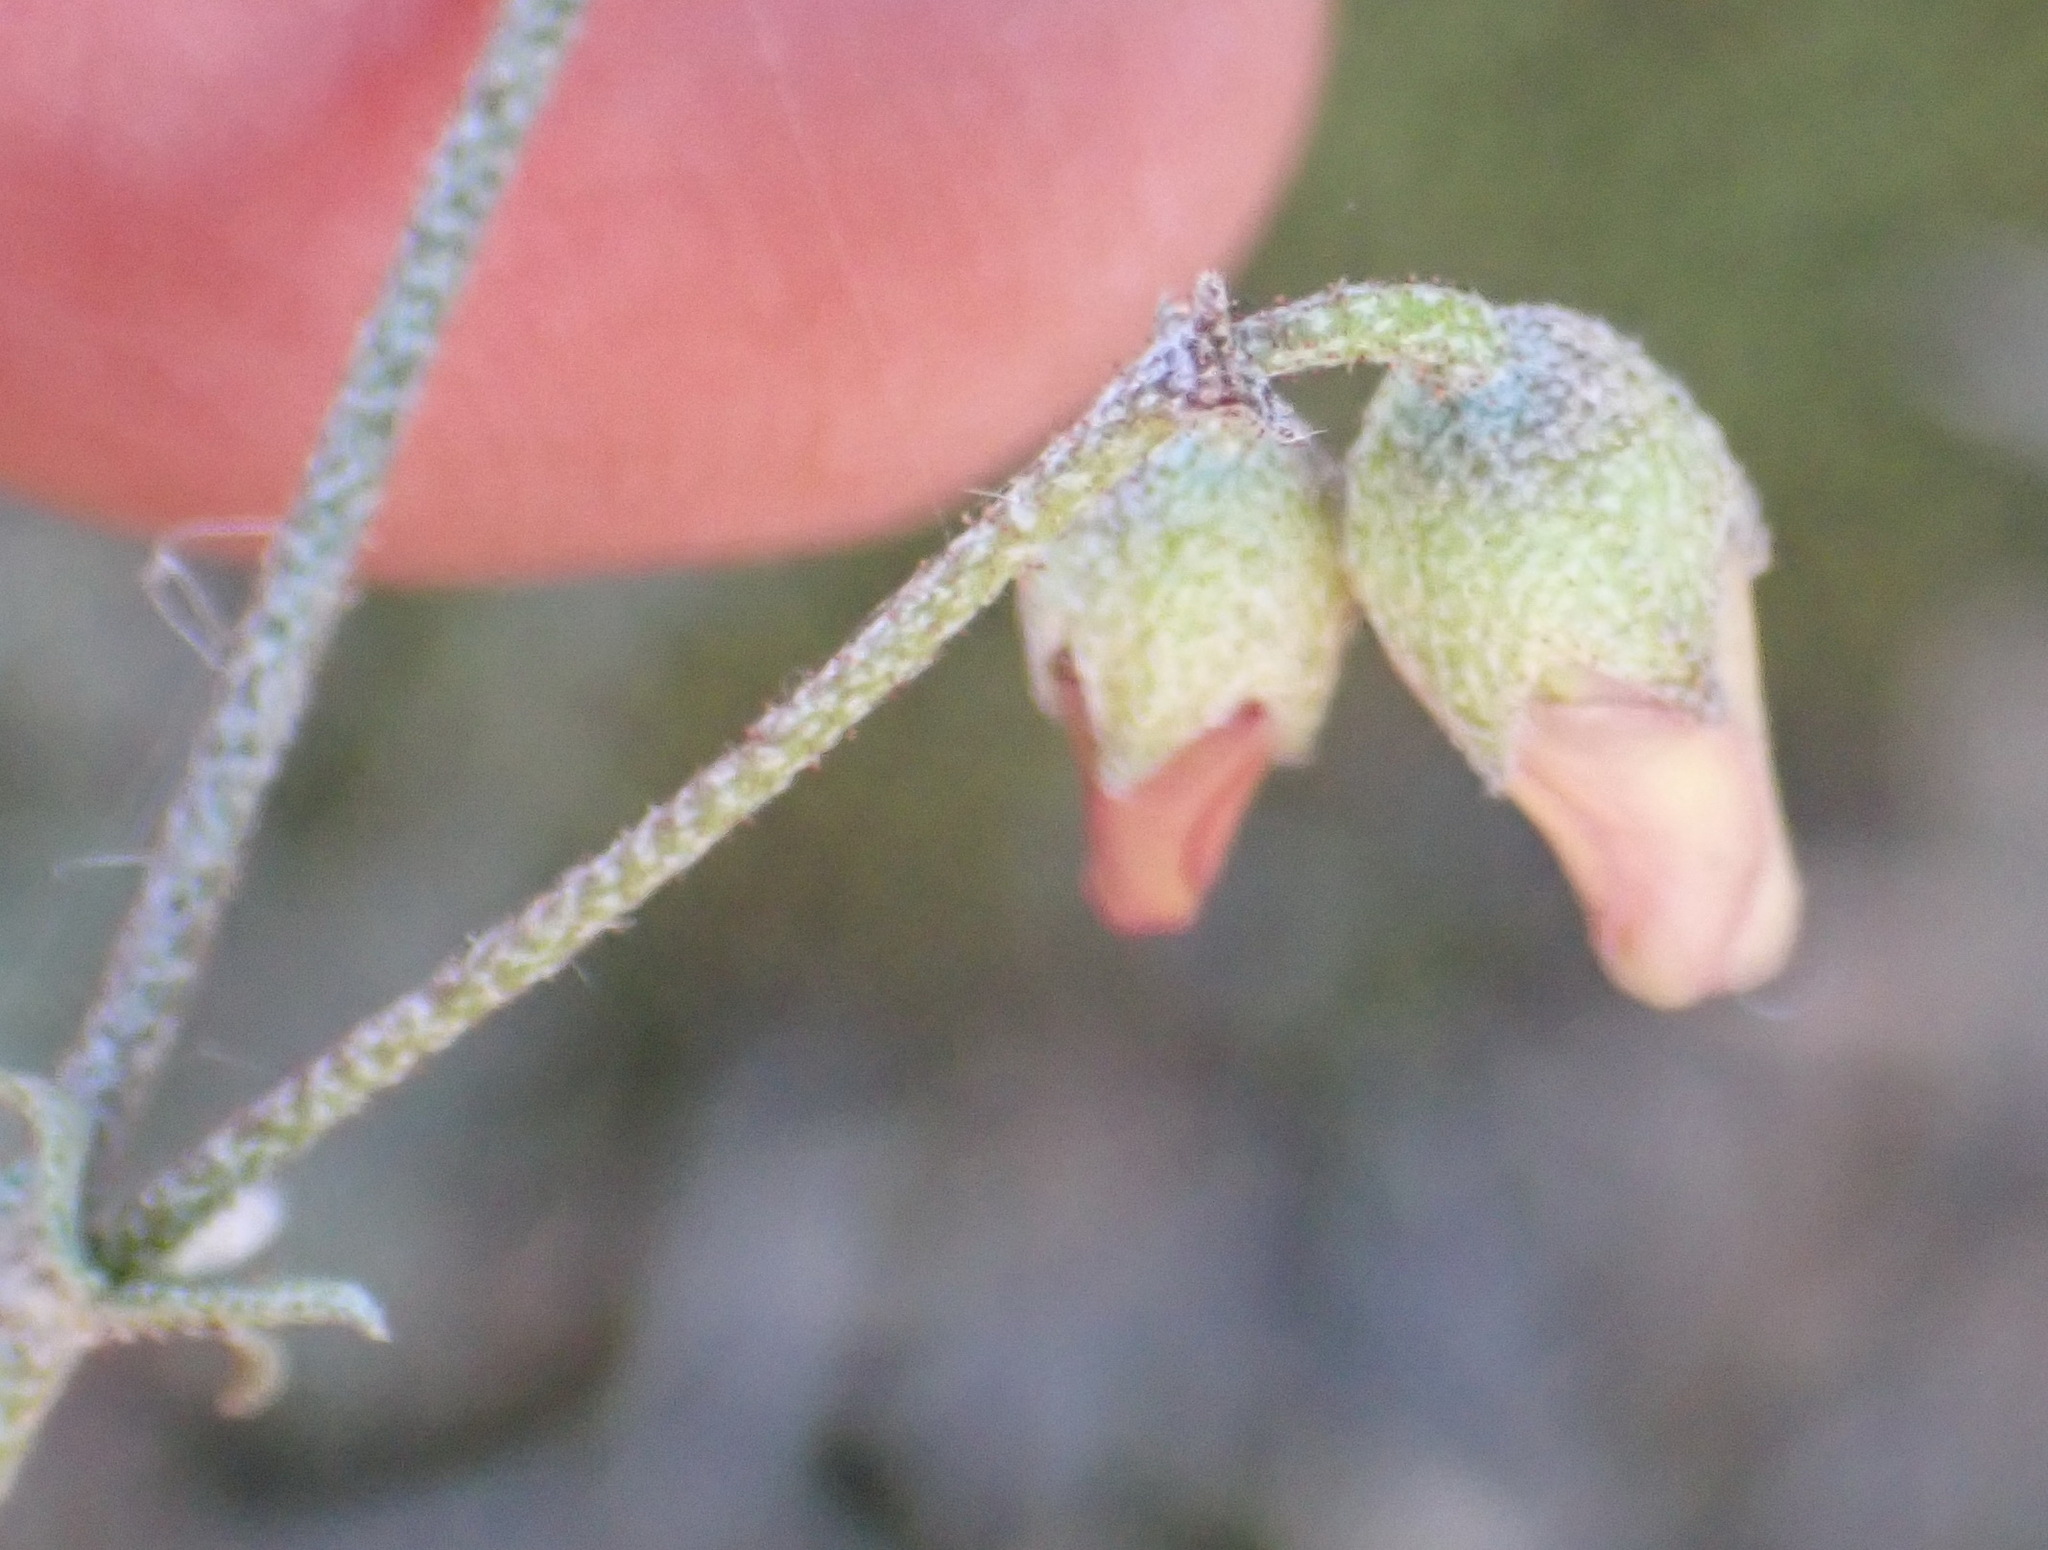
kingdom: Plantae
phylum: Tracheophyta
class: Magnoliopsida
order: Malvales
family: Malvaceae
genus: Hermannia
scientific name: Hermannia pulverata
